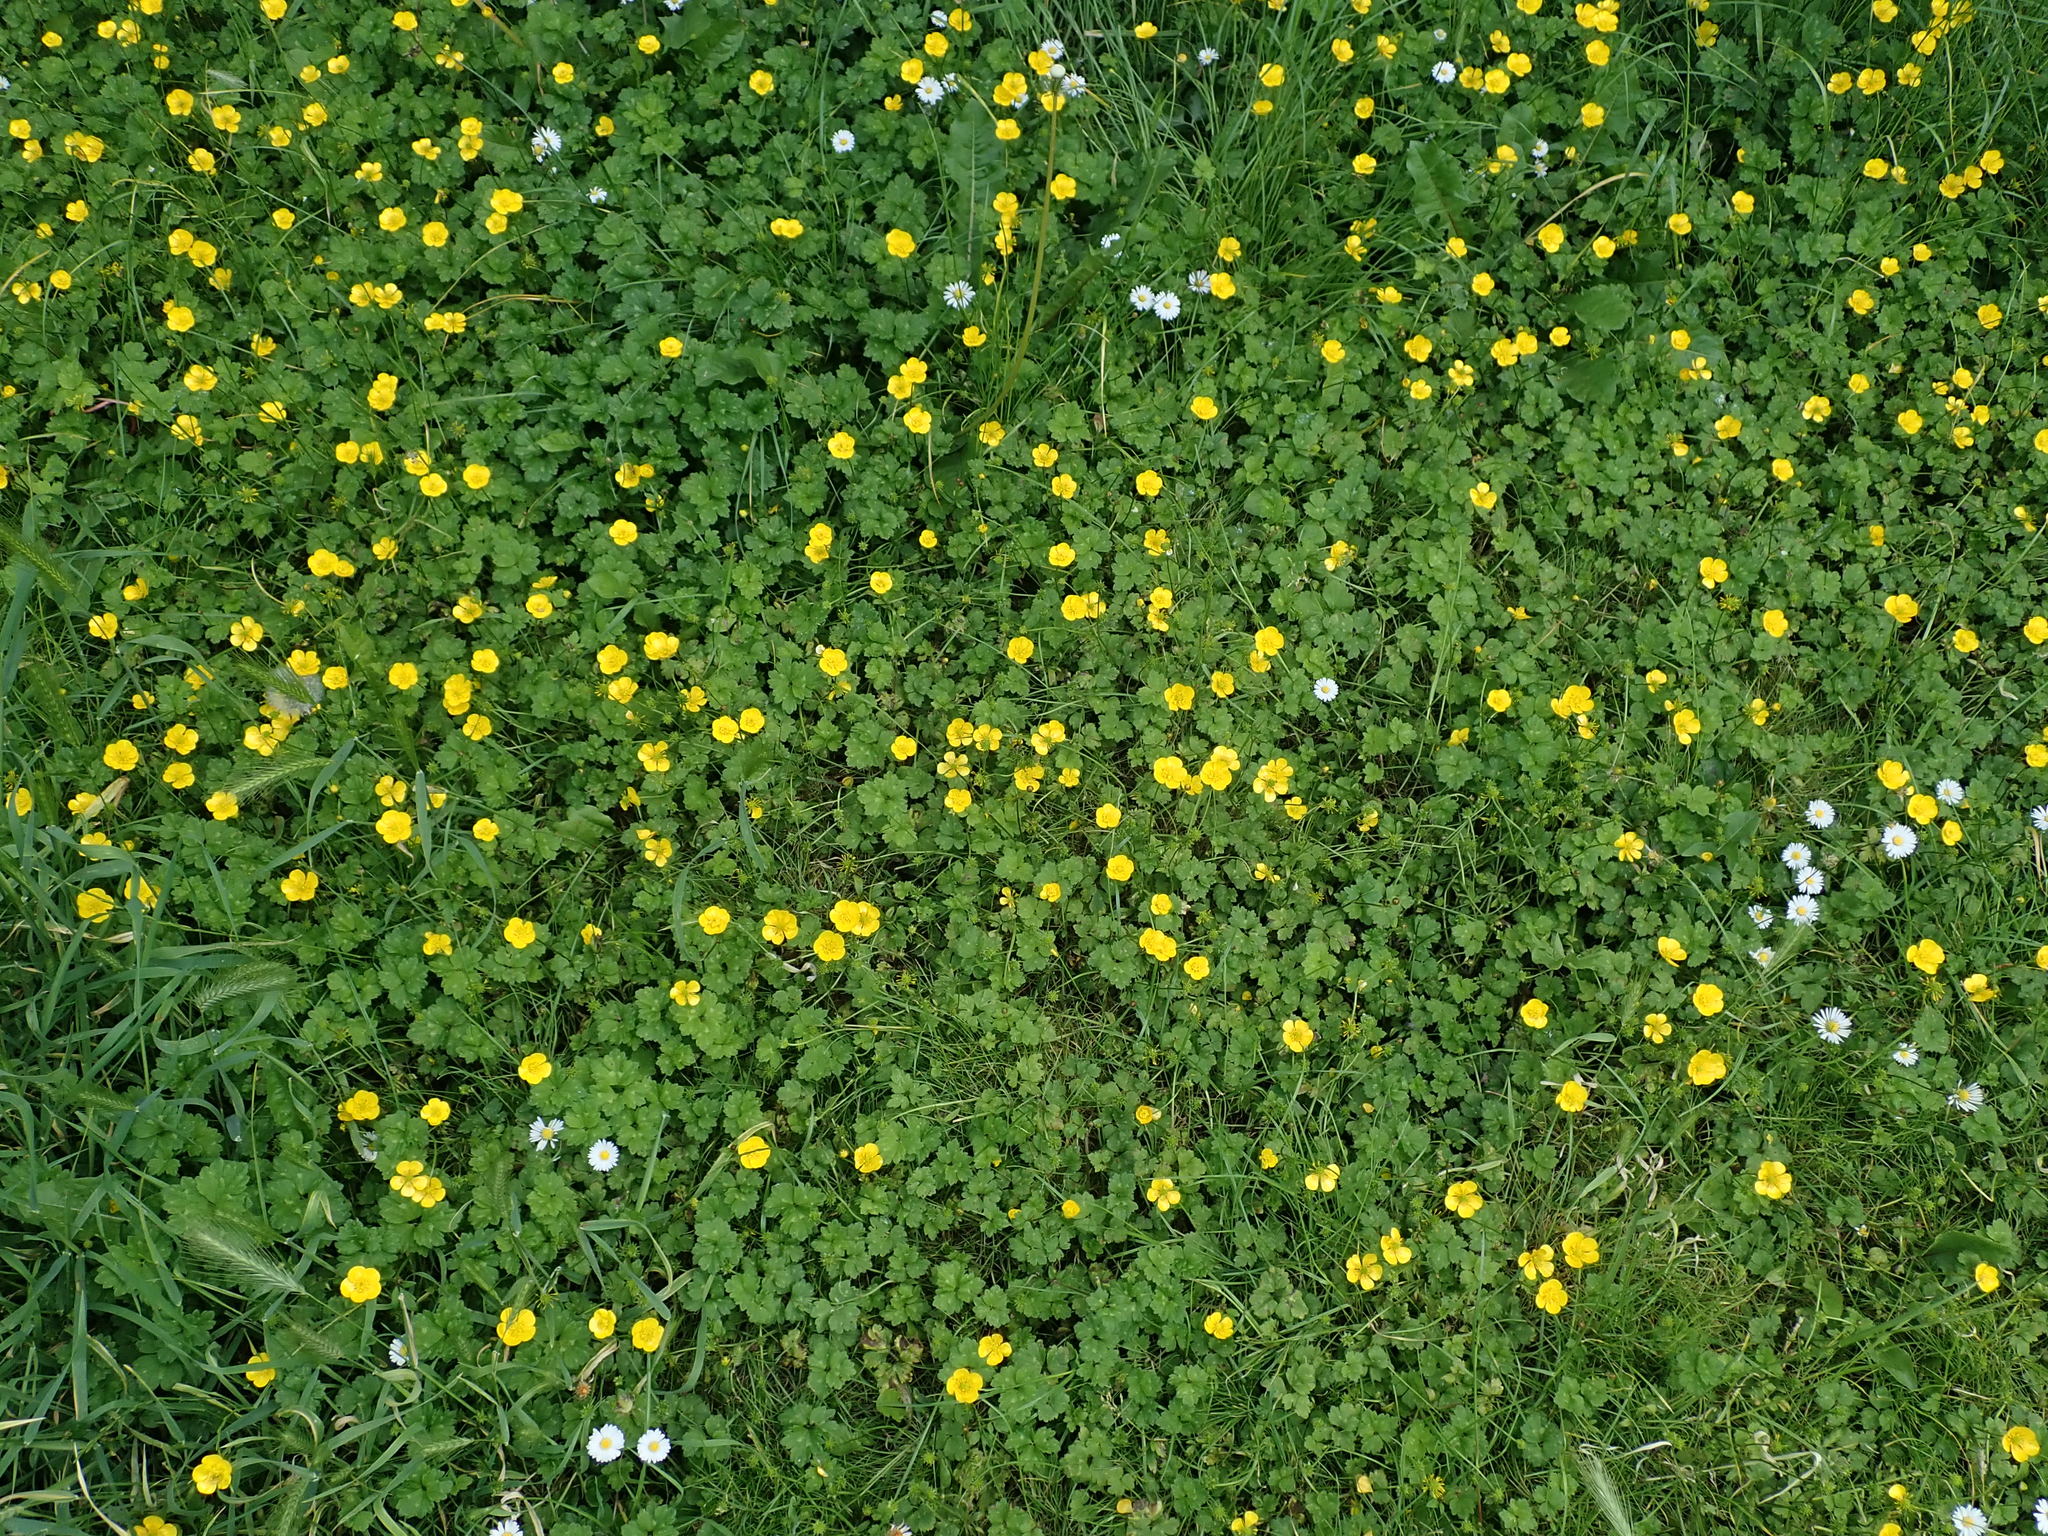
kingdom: Plantae
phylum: Tracheophyta
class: Magnoliopsida
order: Ranunculales
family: Ranunculaceae
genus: Ranunculus
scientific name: Ranunculus repens
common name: Creeping buttercup
